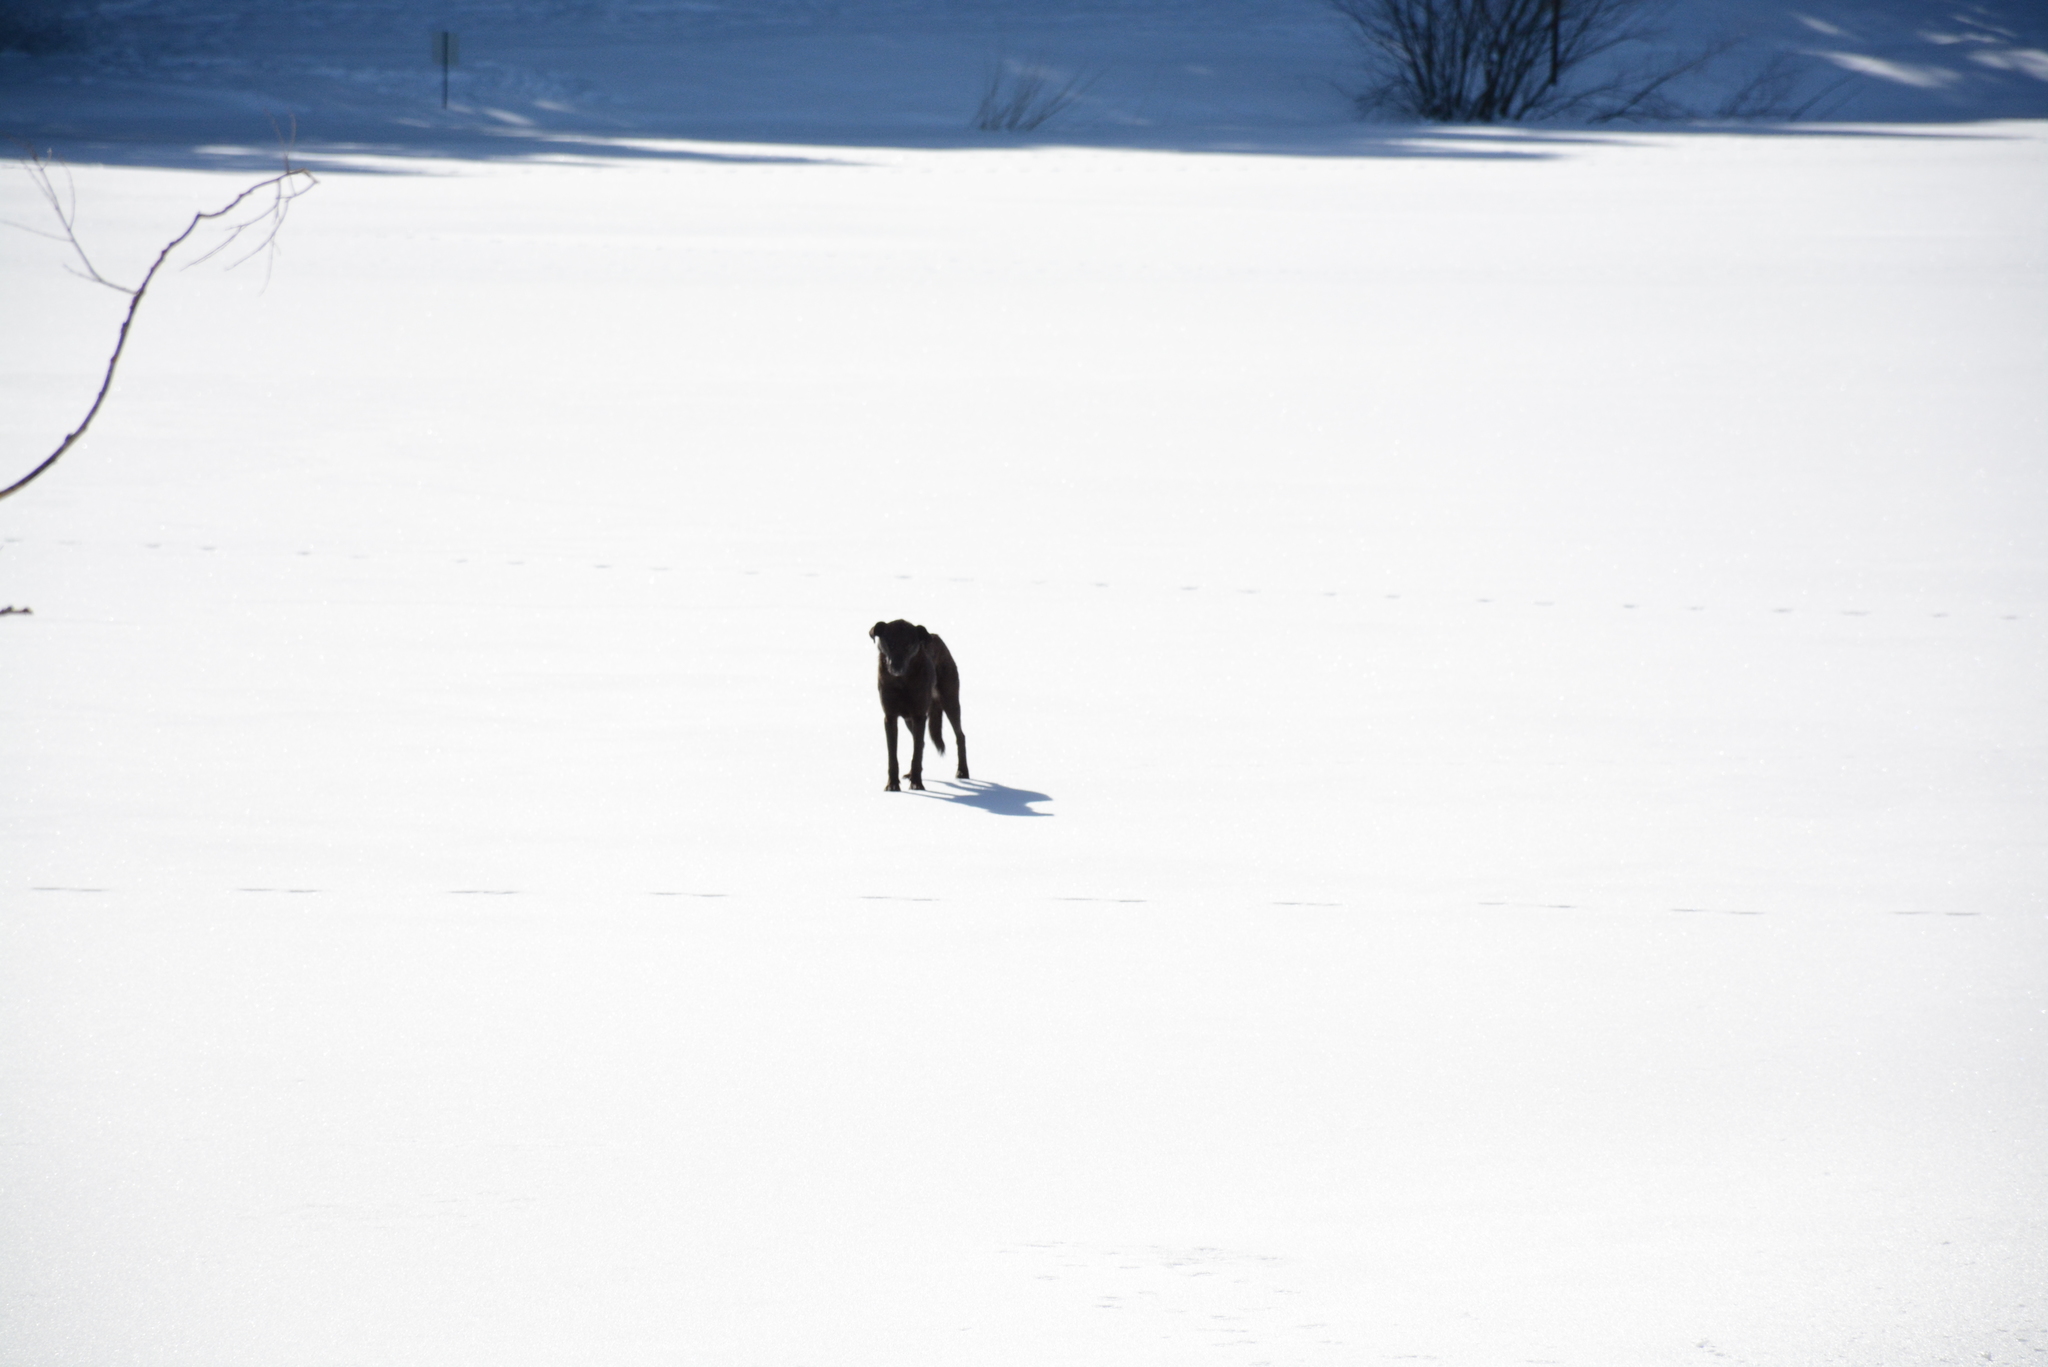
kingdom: Animalia
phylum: Chordata
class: Mammalia
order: Carnivora
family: Canidae
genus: Canis
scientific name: Canis lupus
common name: Gray wolf
